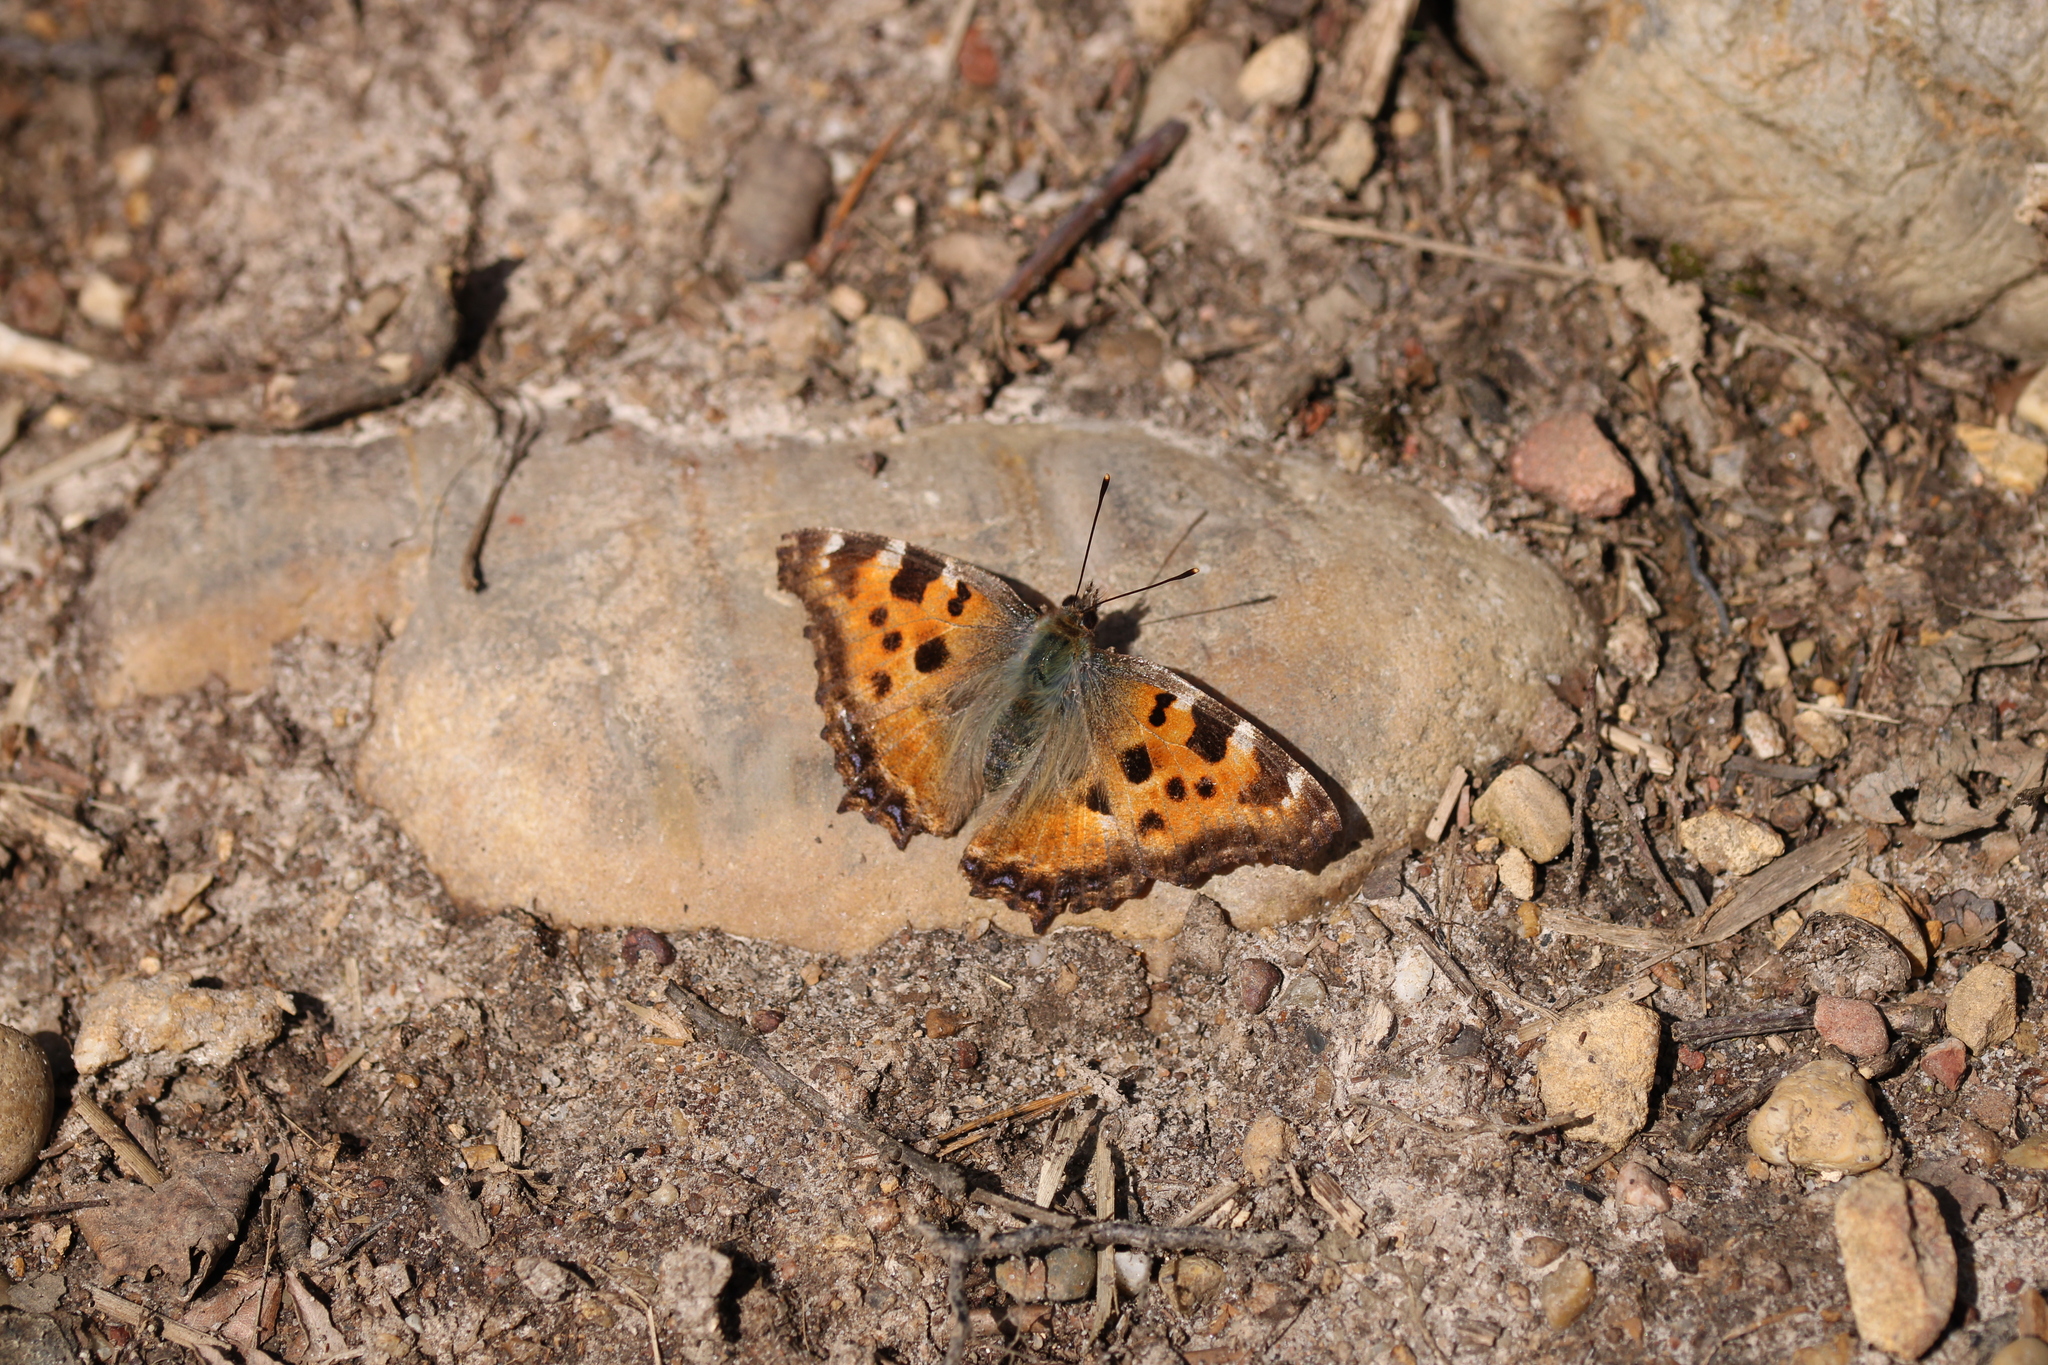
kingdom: Animalia
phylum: Arthropoda
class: Insecta
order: Lepidoptera
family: Nymphalidae
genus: Nymphalis
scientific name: Nymphalis polychloros
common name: Large tortoiseshell
